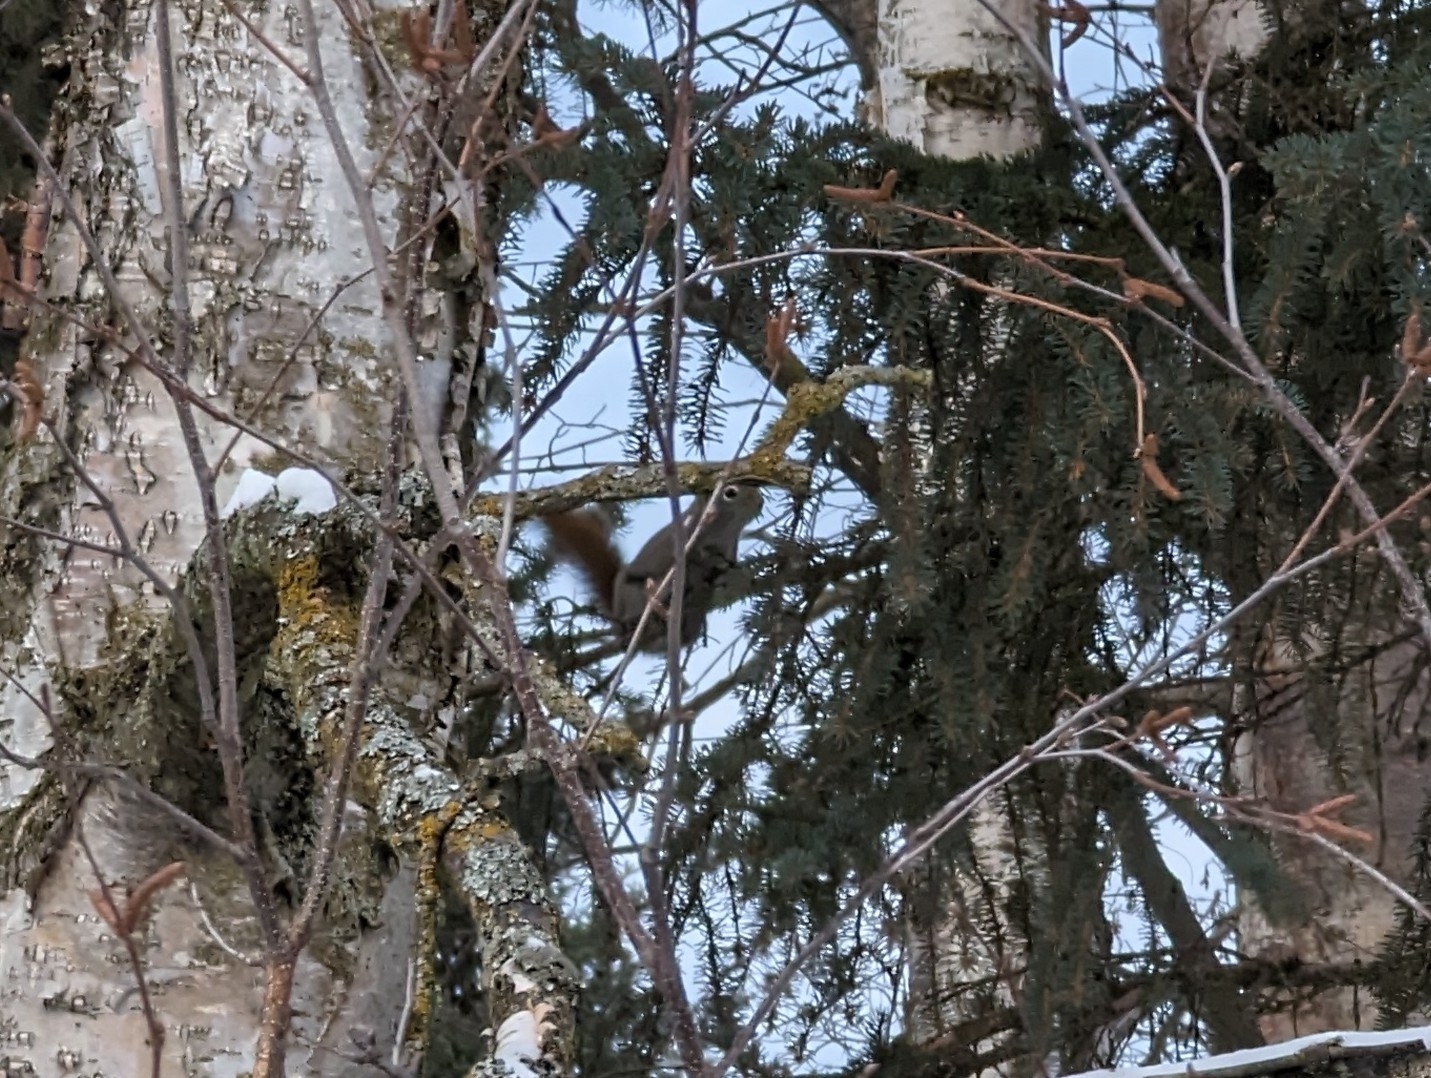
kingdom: Animalia
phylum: Chordata
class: Mammalia
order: Rodentia
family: Sciuridae
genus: Tamiasciurus
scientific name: Tamiasciurus hudsonicus
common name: Red squirrel
